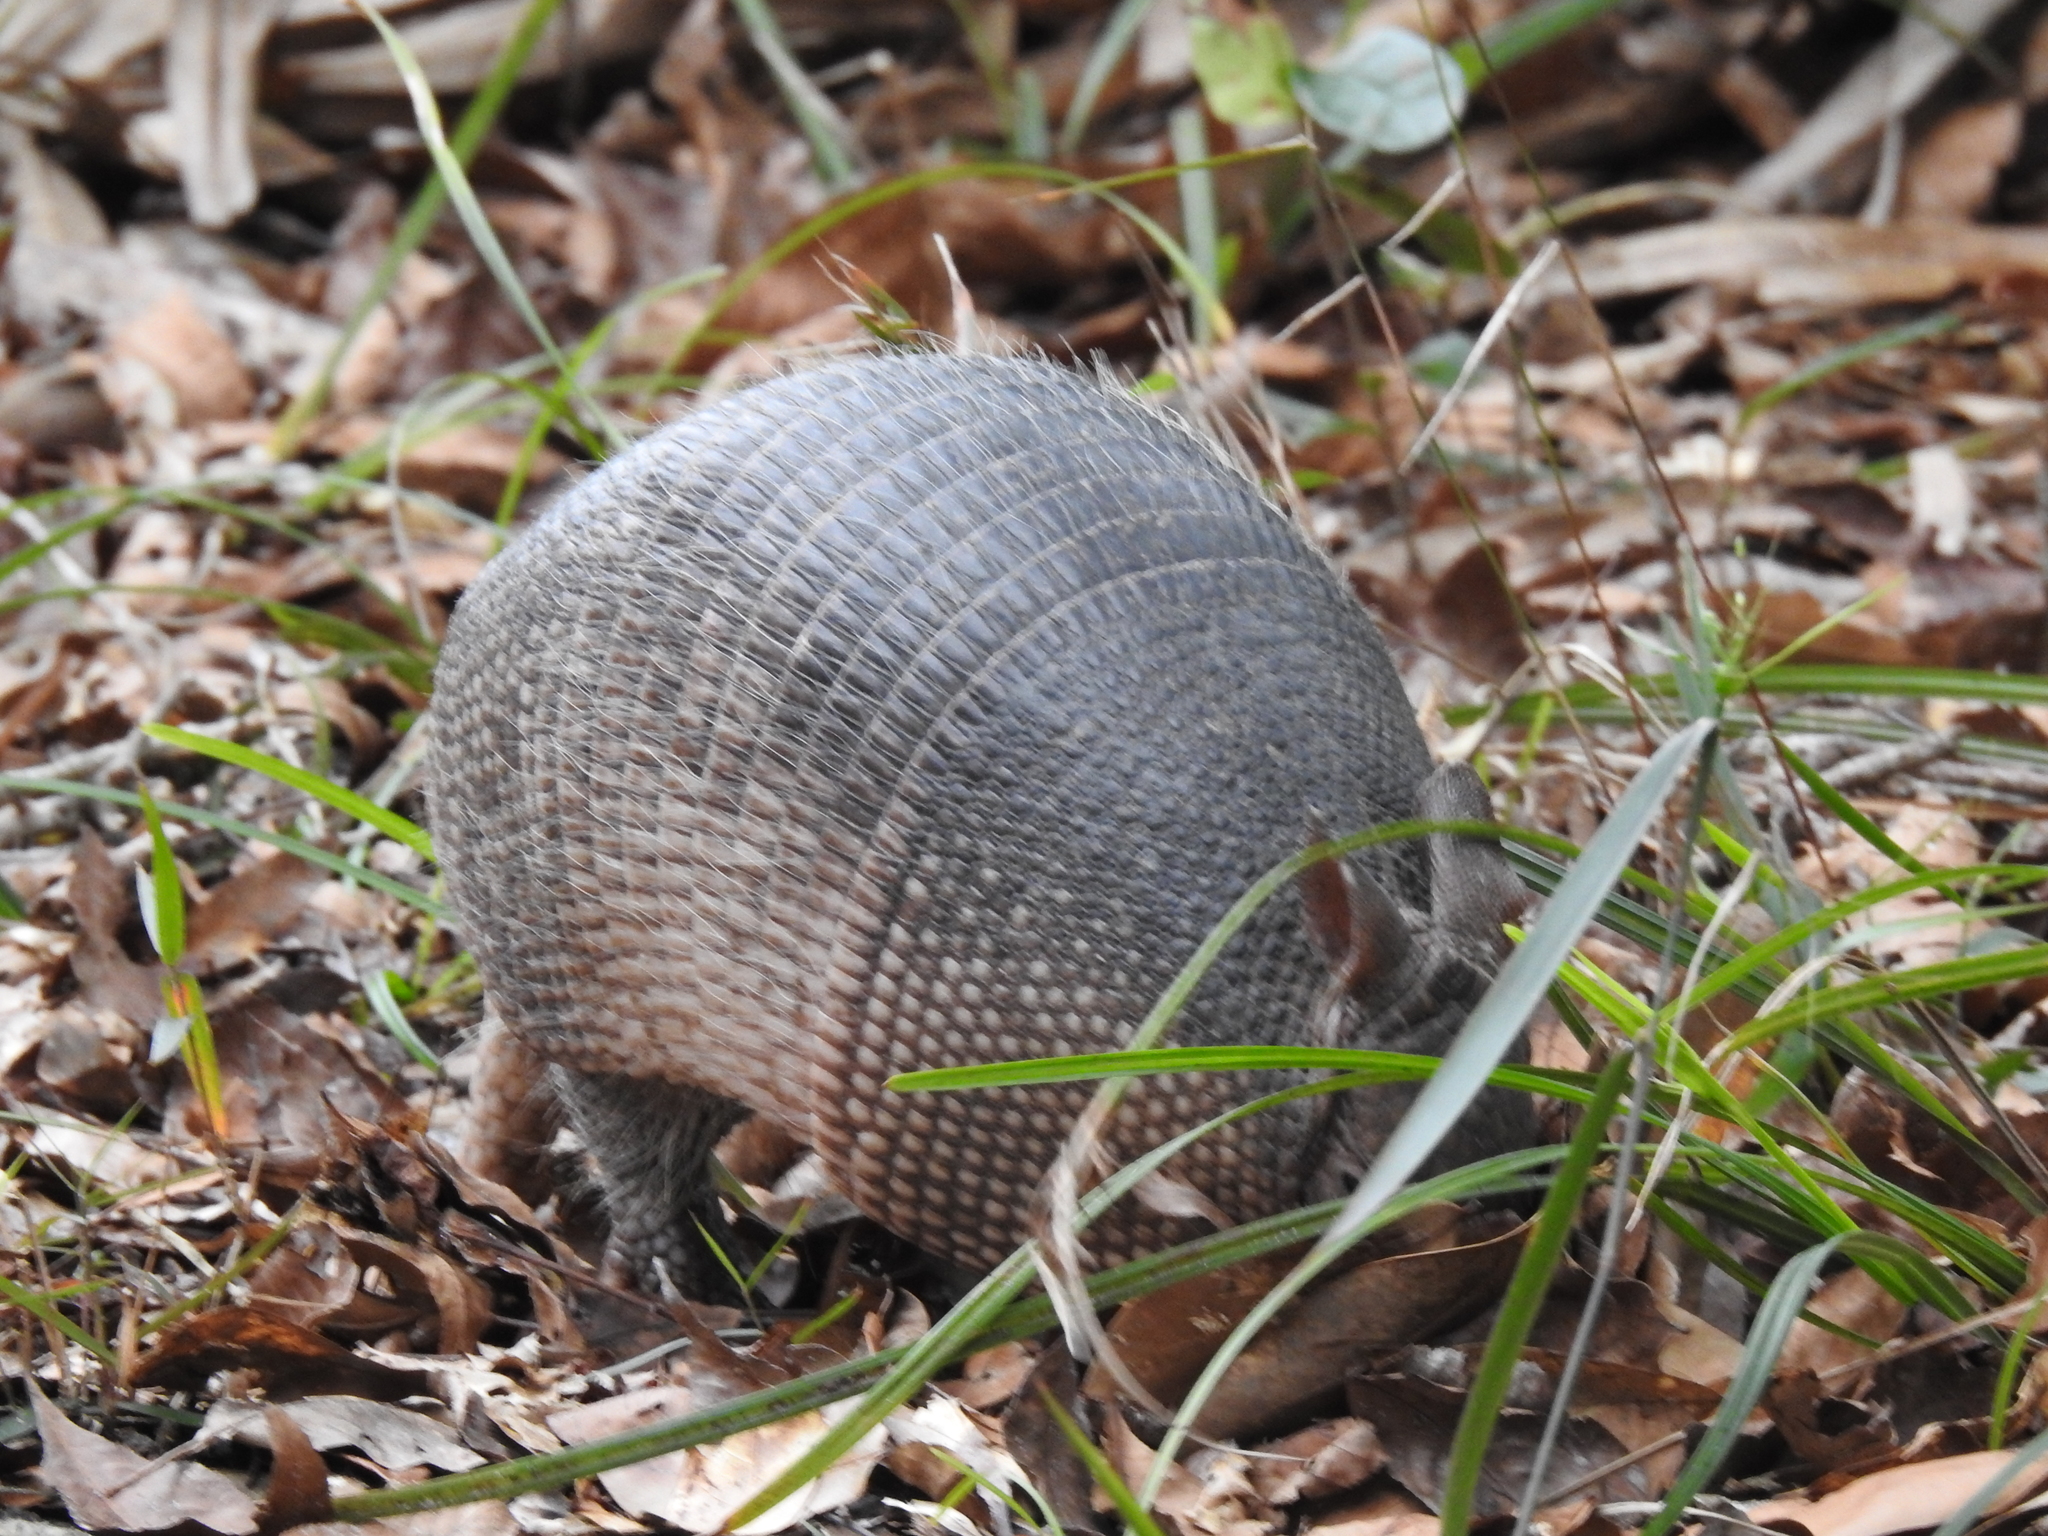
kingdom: Animalia
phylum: Chordata
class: Mammalia
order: Cingulata
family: Dasypodidae
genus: Dasypus
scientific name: Dasypus novemcinctus
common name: Nine-banded armadillo
